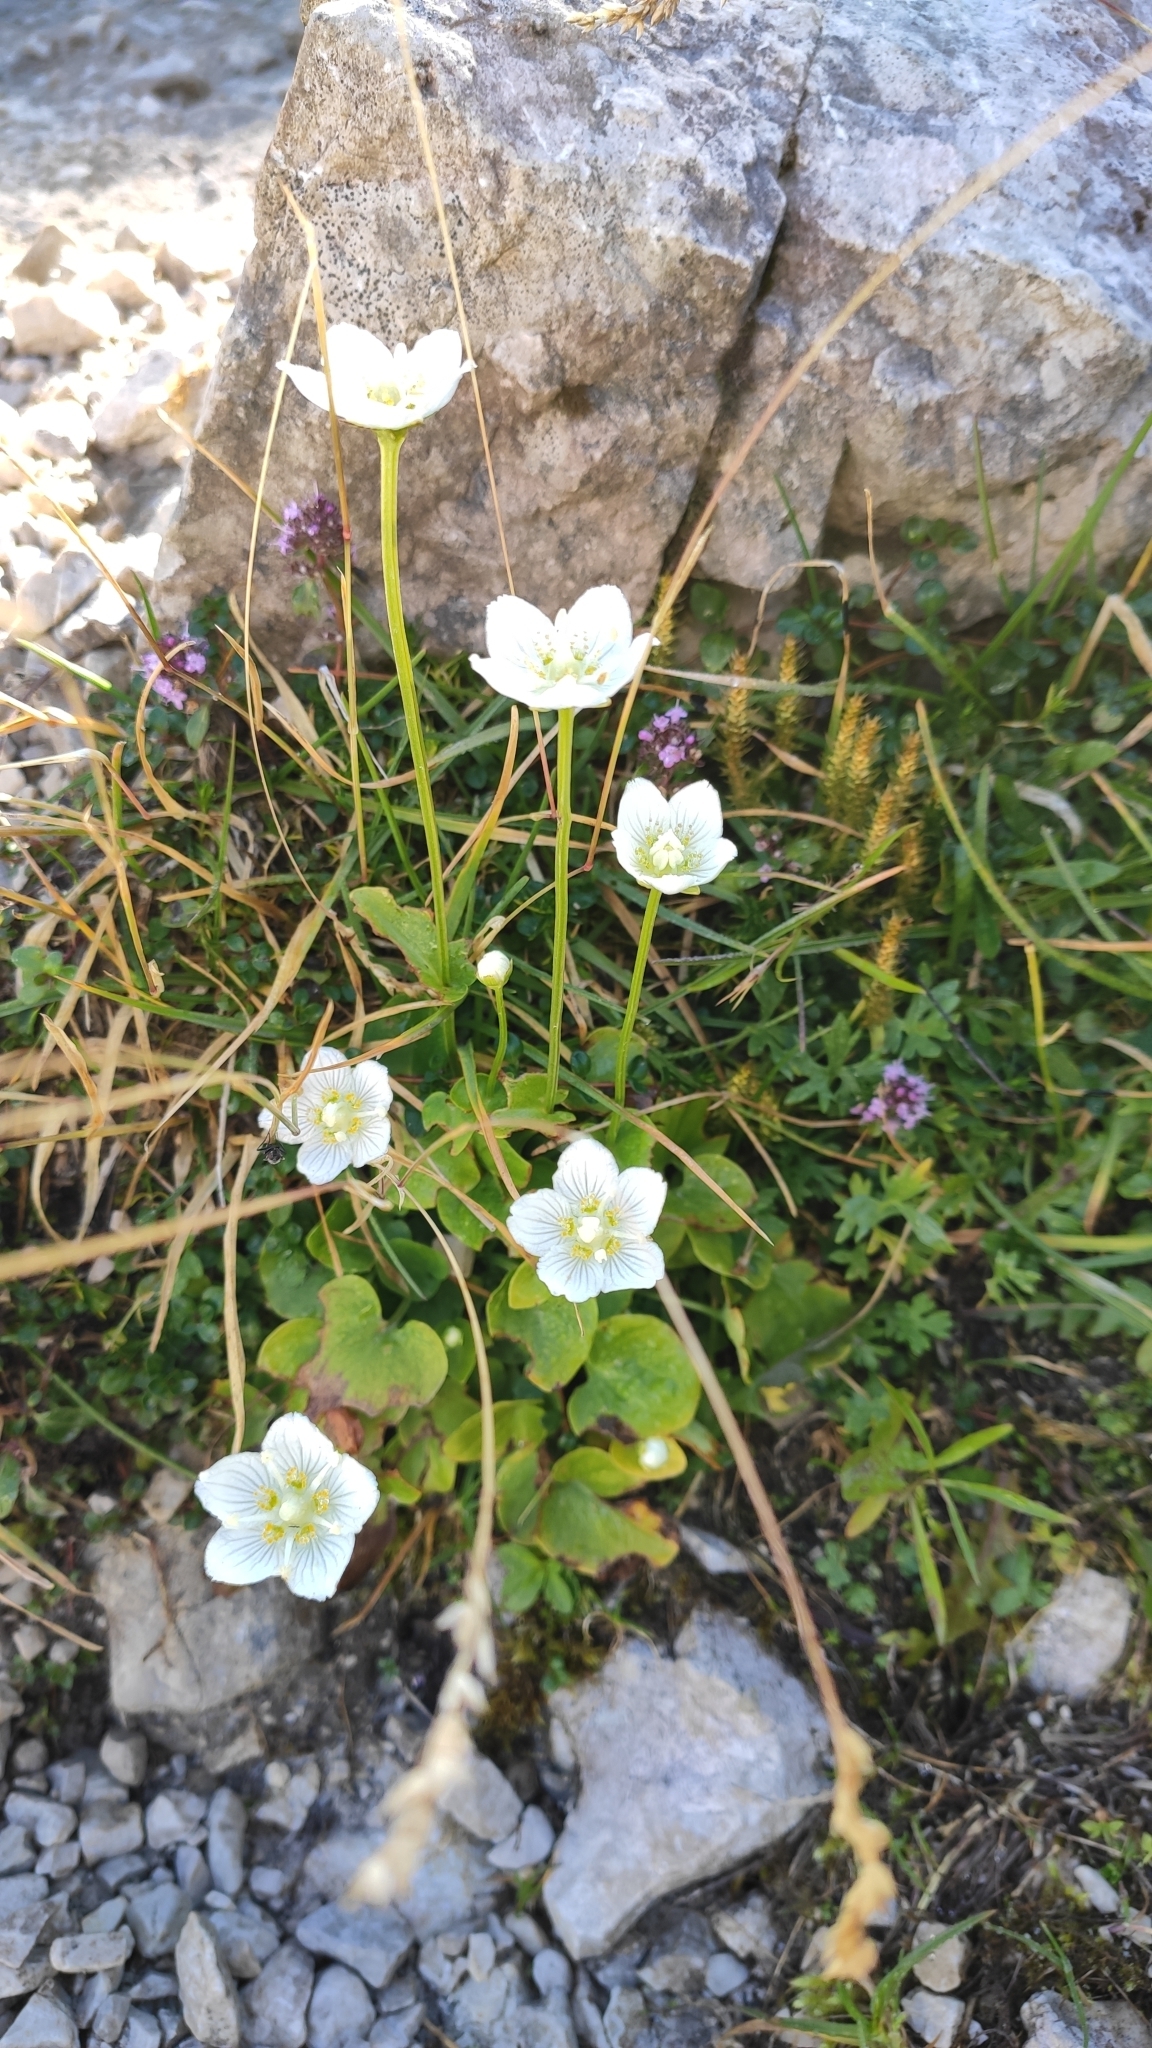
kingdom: Plantae
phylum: Tracheophyta
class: Magnoliopsida
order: Celastrales
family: Parnassiaceae
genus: Parnassia
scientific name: Parnassia palustris
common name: Grass-of-parnassus
